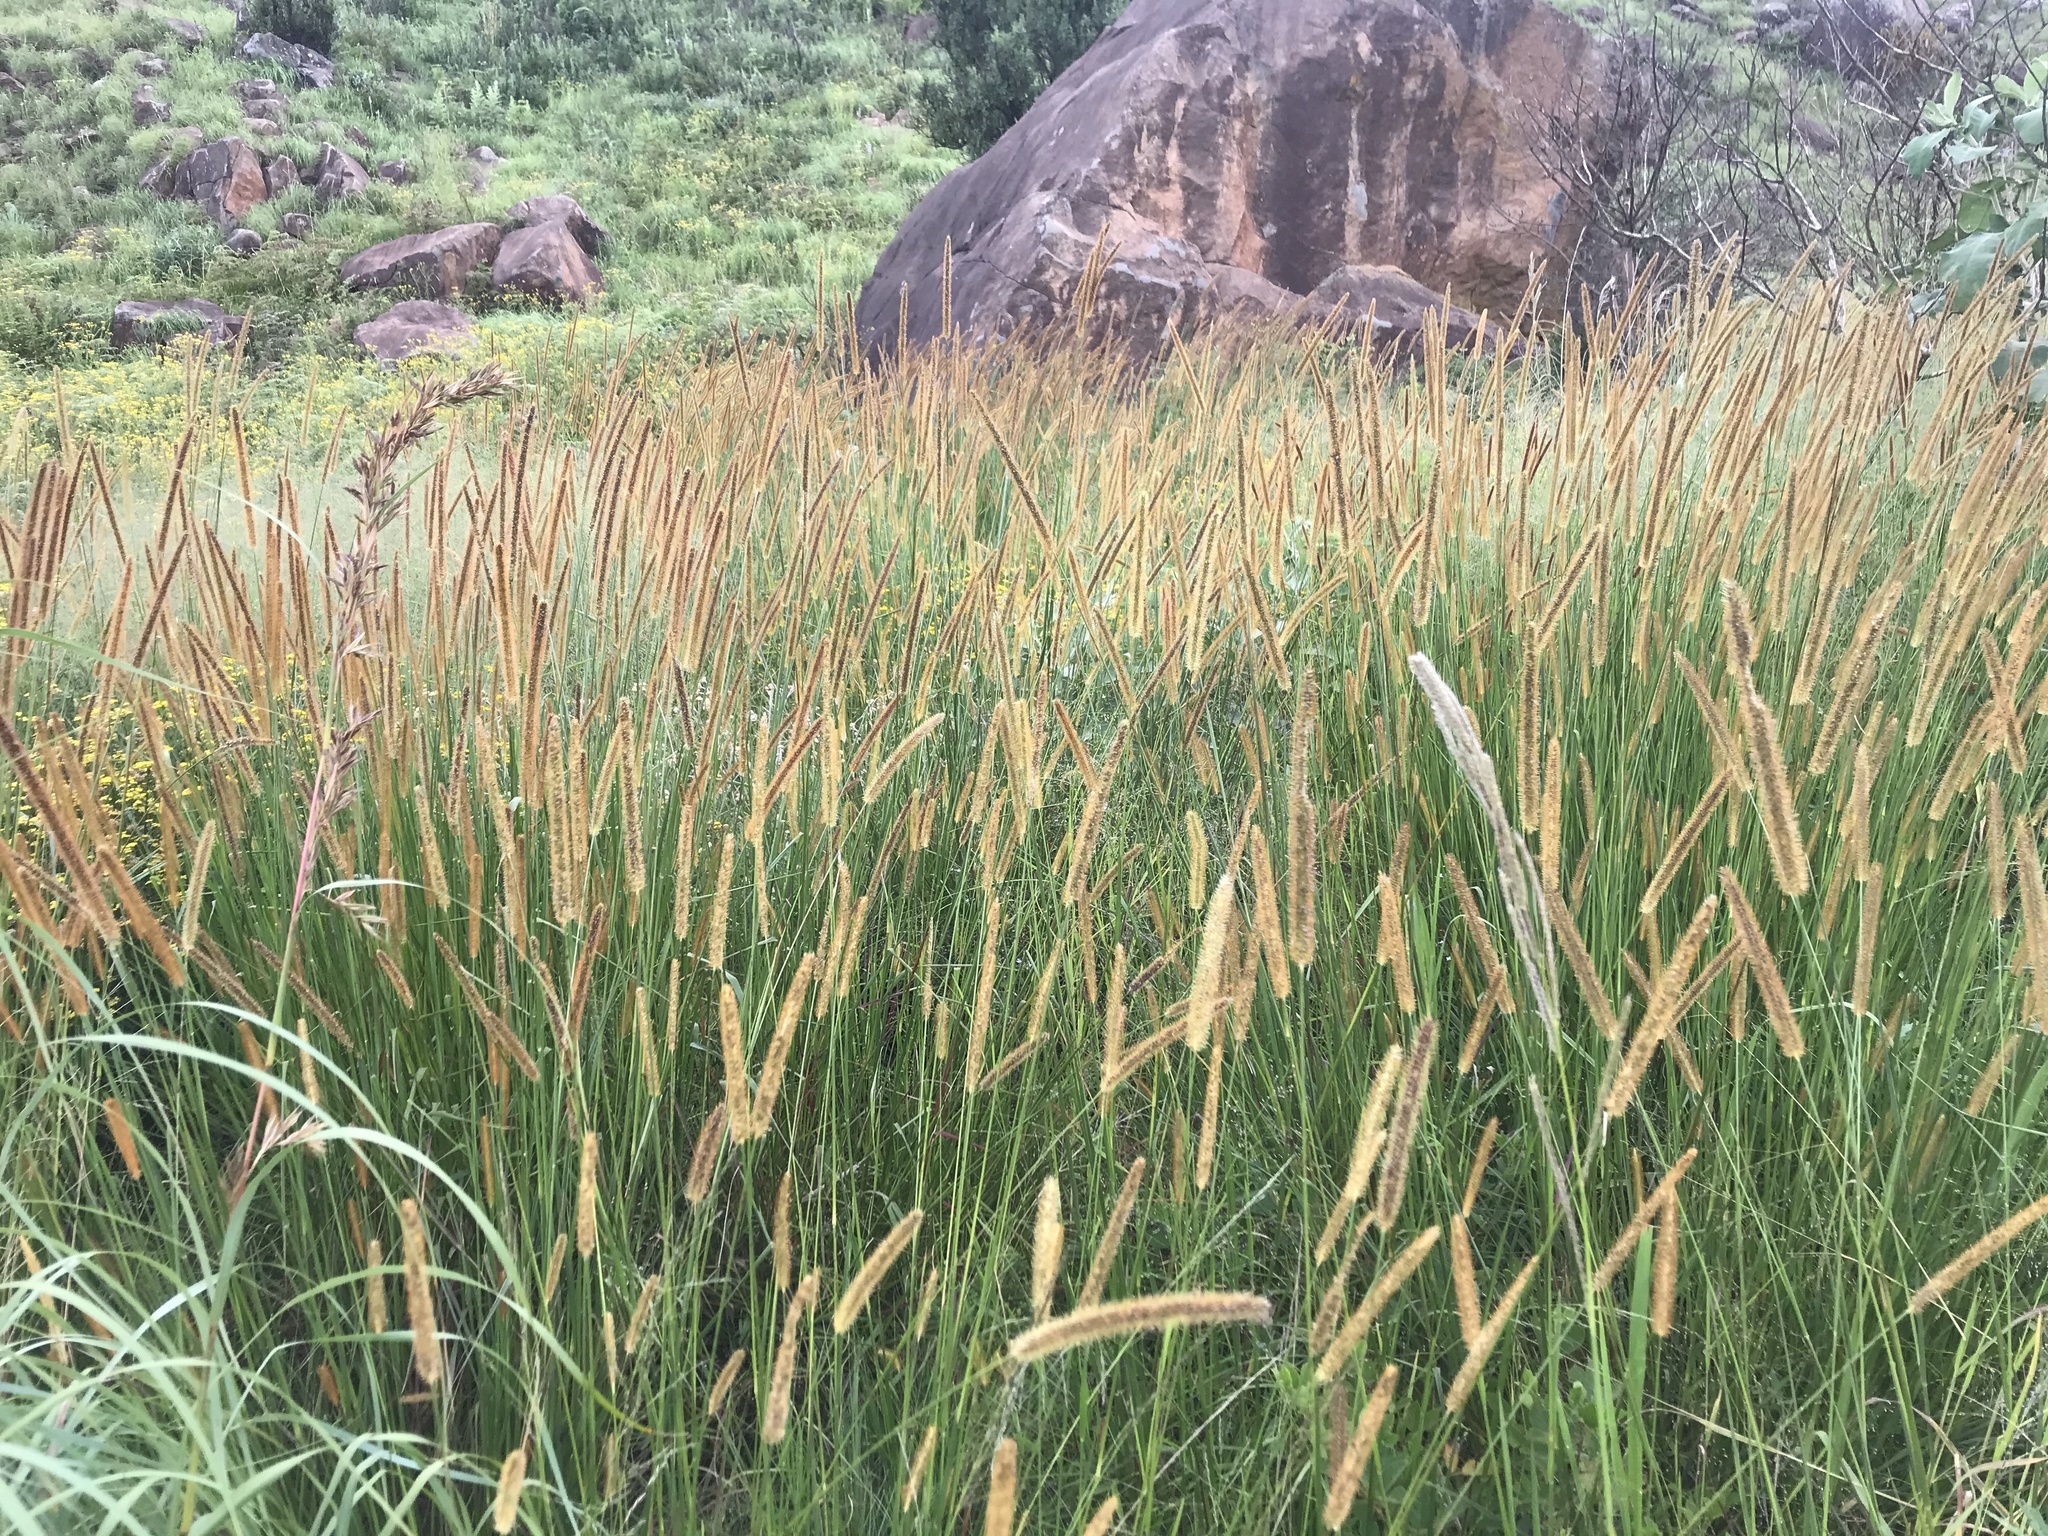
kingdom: Plantae
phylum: Tracheophyta
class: Liliopsida
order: Poales
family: Poaceae
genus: Setaria
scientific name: Setaria sphacelata
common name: African bristlegrass
